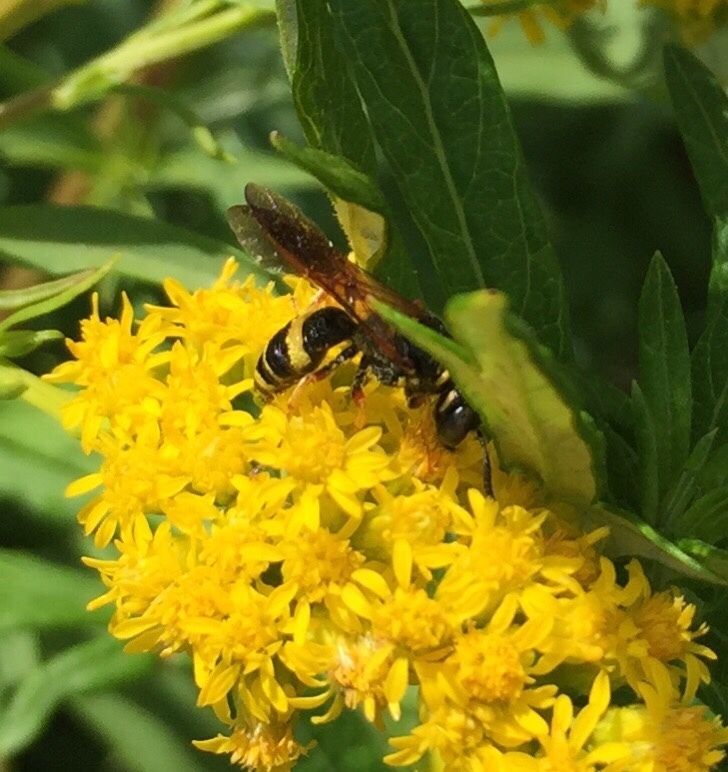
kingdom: Animalia
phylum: Arthropoda
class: Insecta
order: Hymenoptera
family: Crabronidae
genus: Philanthus
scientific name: Philanthus gibbosus
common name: Humped beewolf
